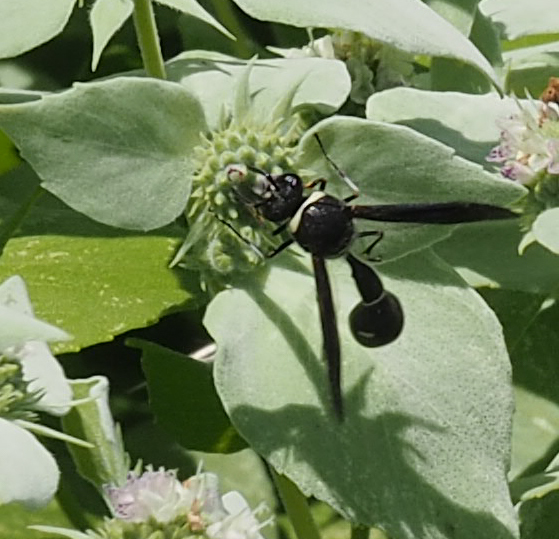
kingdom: Animalia
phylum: Arthropoda
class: Insecta
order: Hymenoptera
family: Vespidae
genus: Eumenes
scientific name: Eumenes fraternus
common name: Fraternal potter wasp
